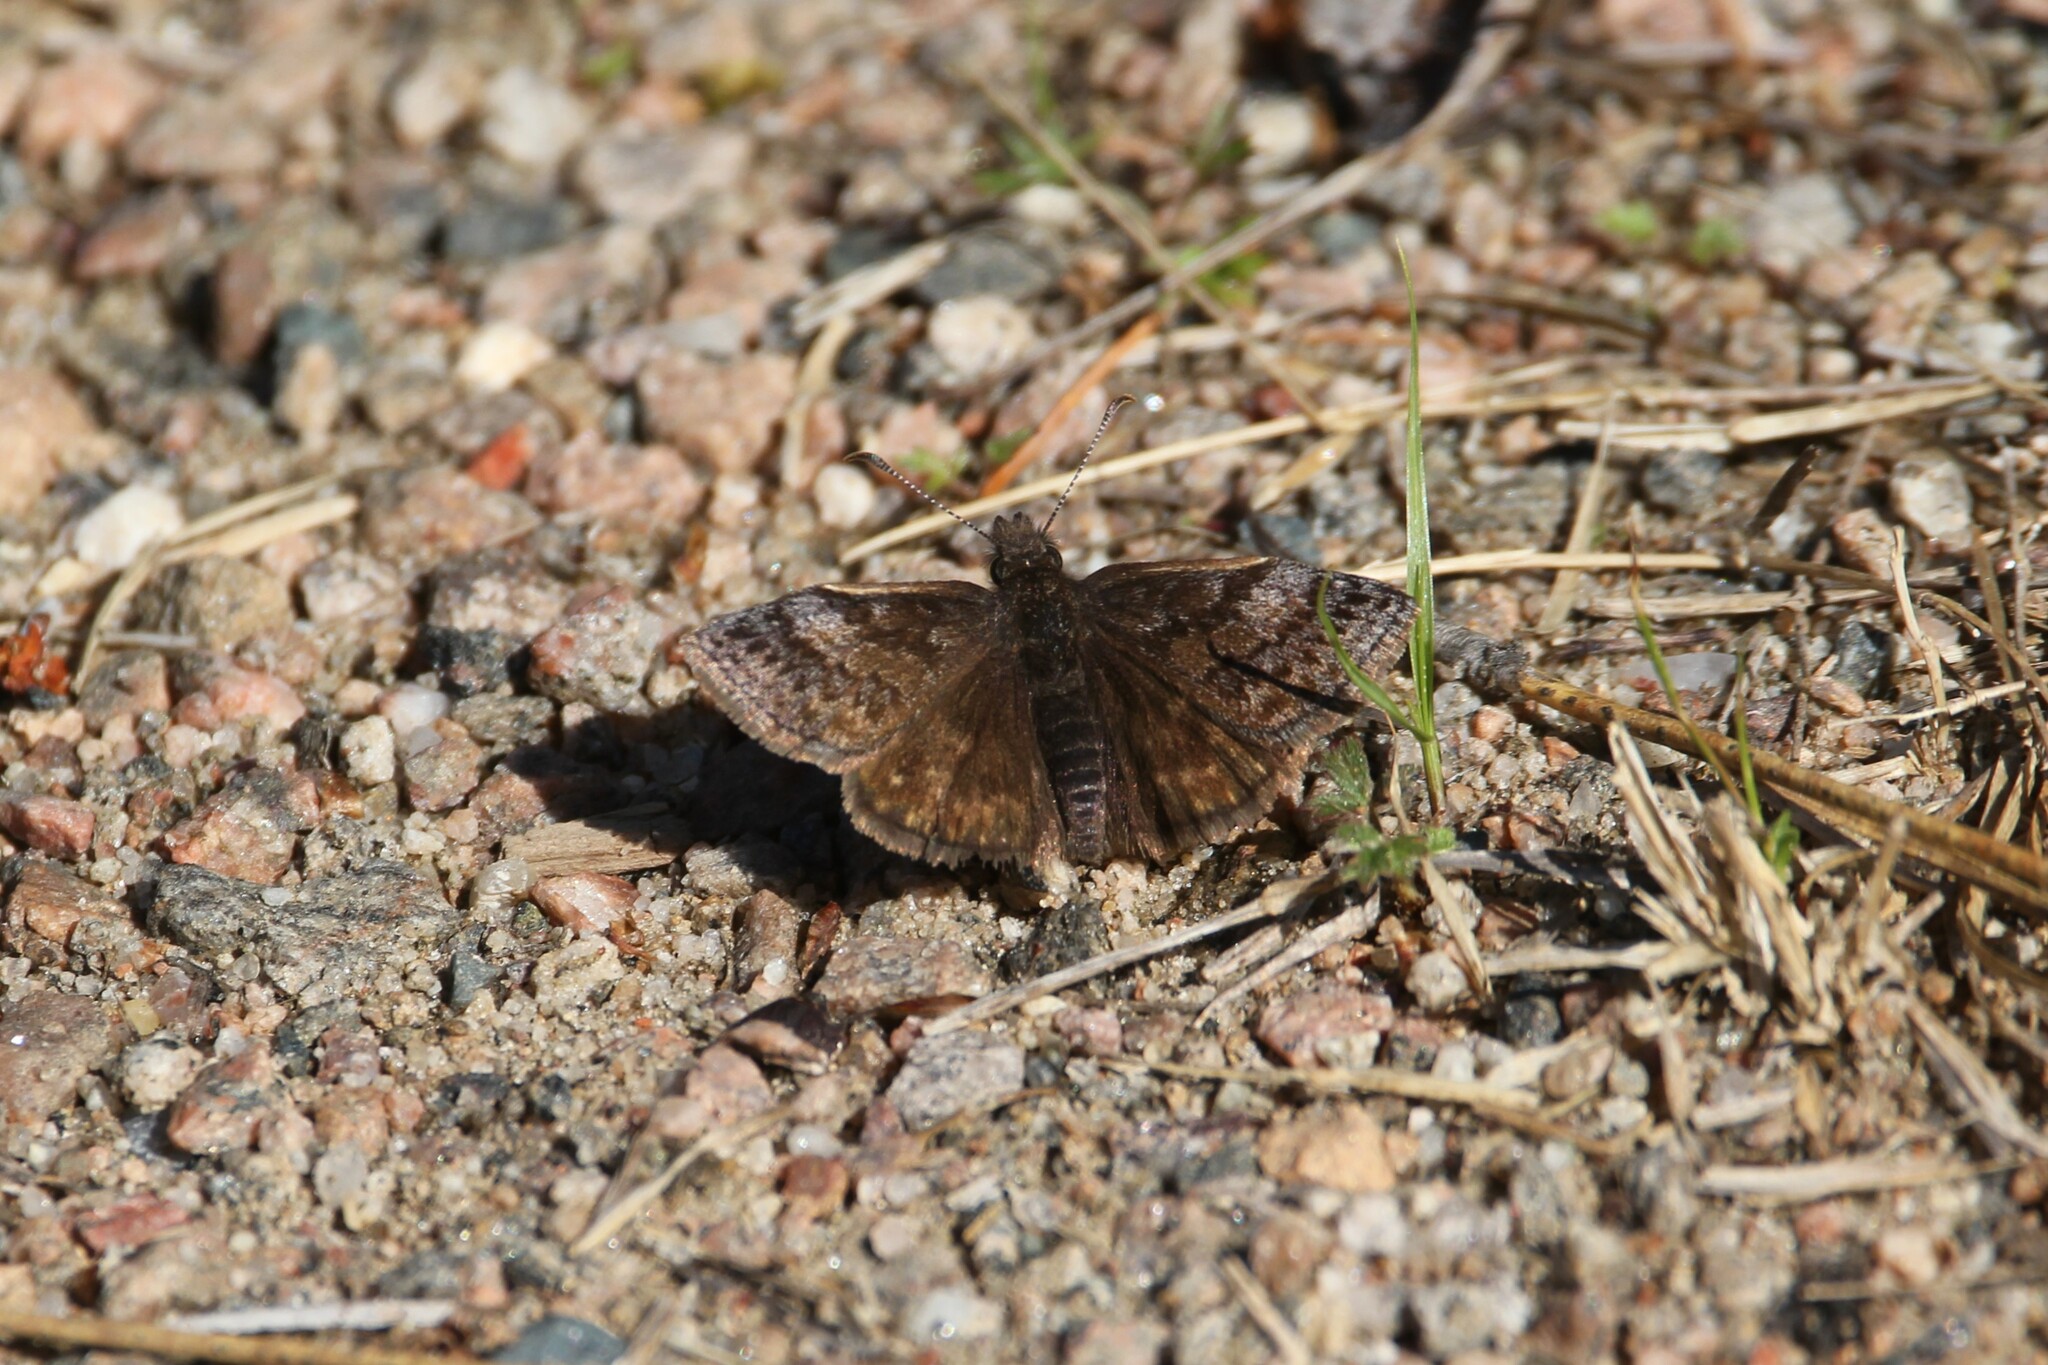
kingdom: Animalia
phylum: Arthropoda
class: Insecta
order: Lepidoptera
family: Hesperiidae
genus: Erynnis
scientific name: Erynnis icelus
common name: Dreamy duskywing
